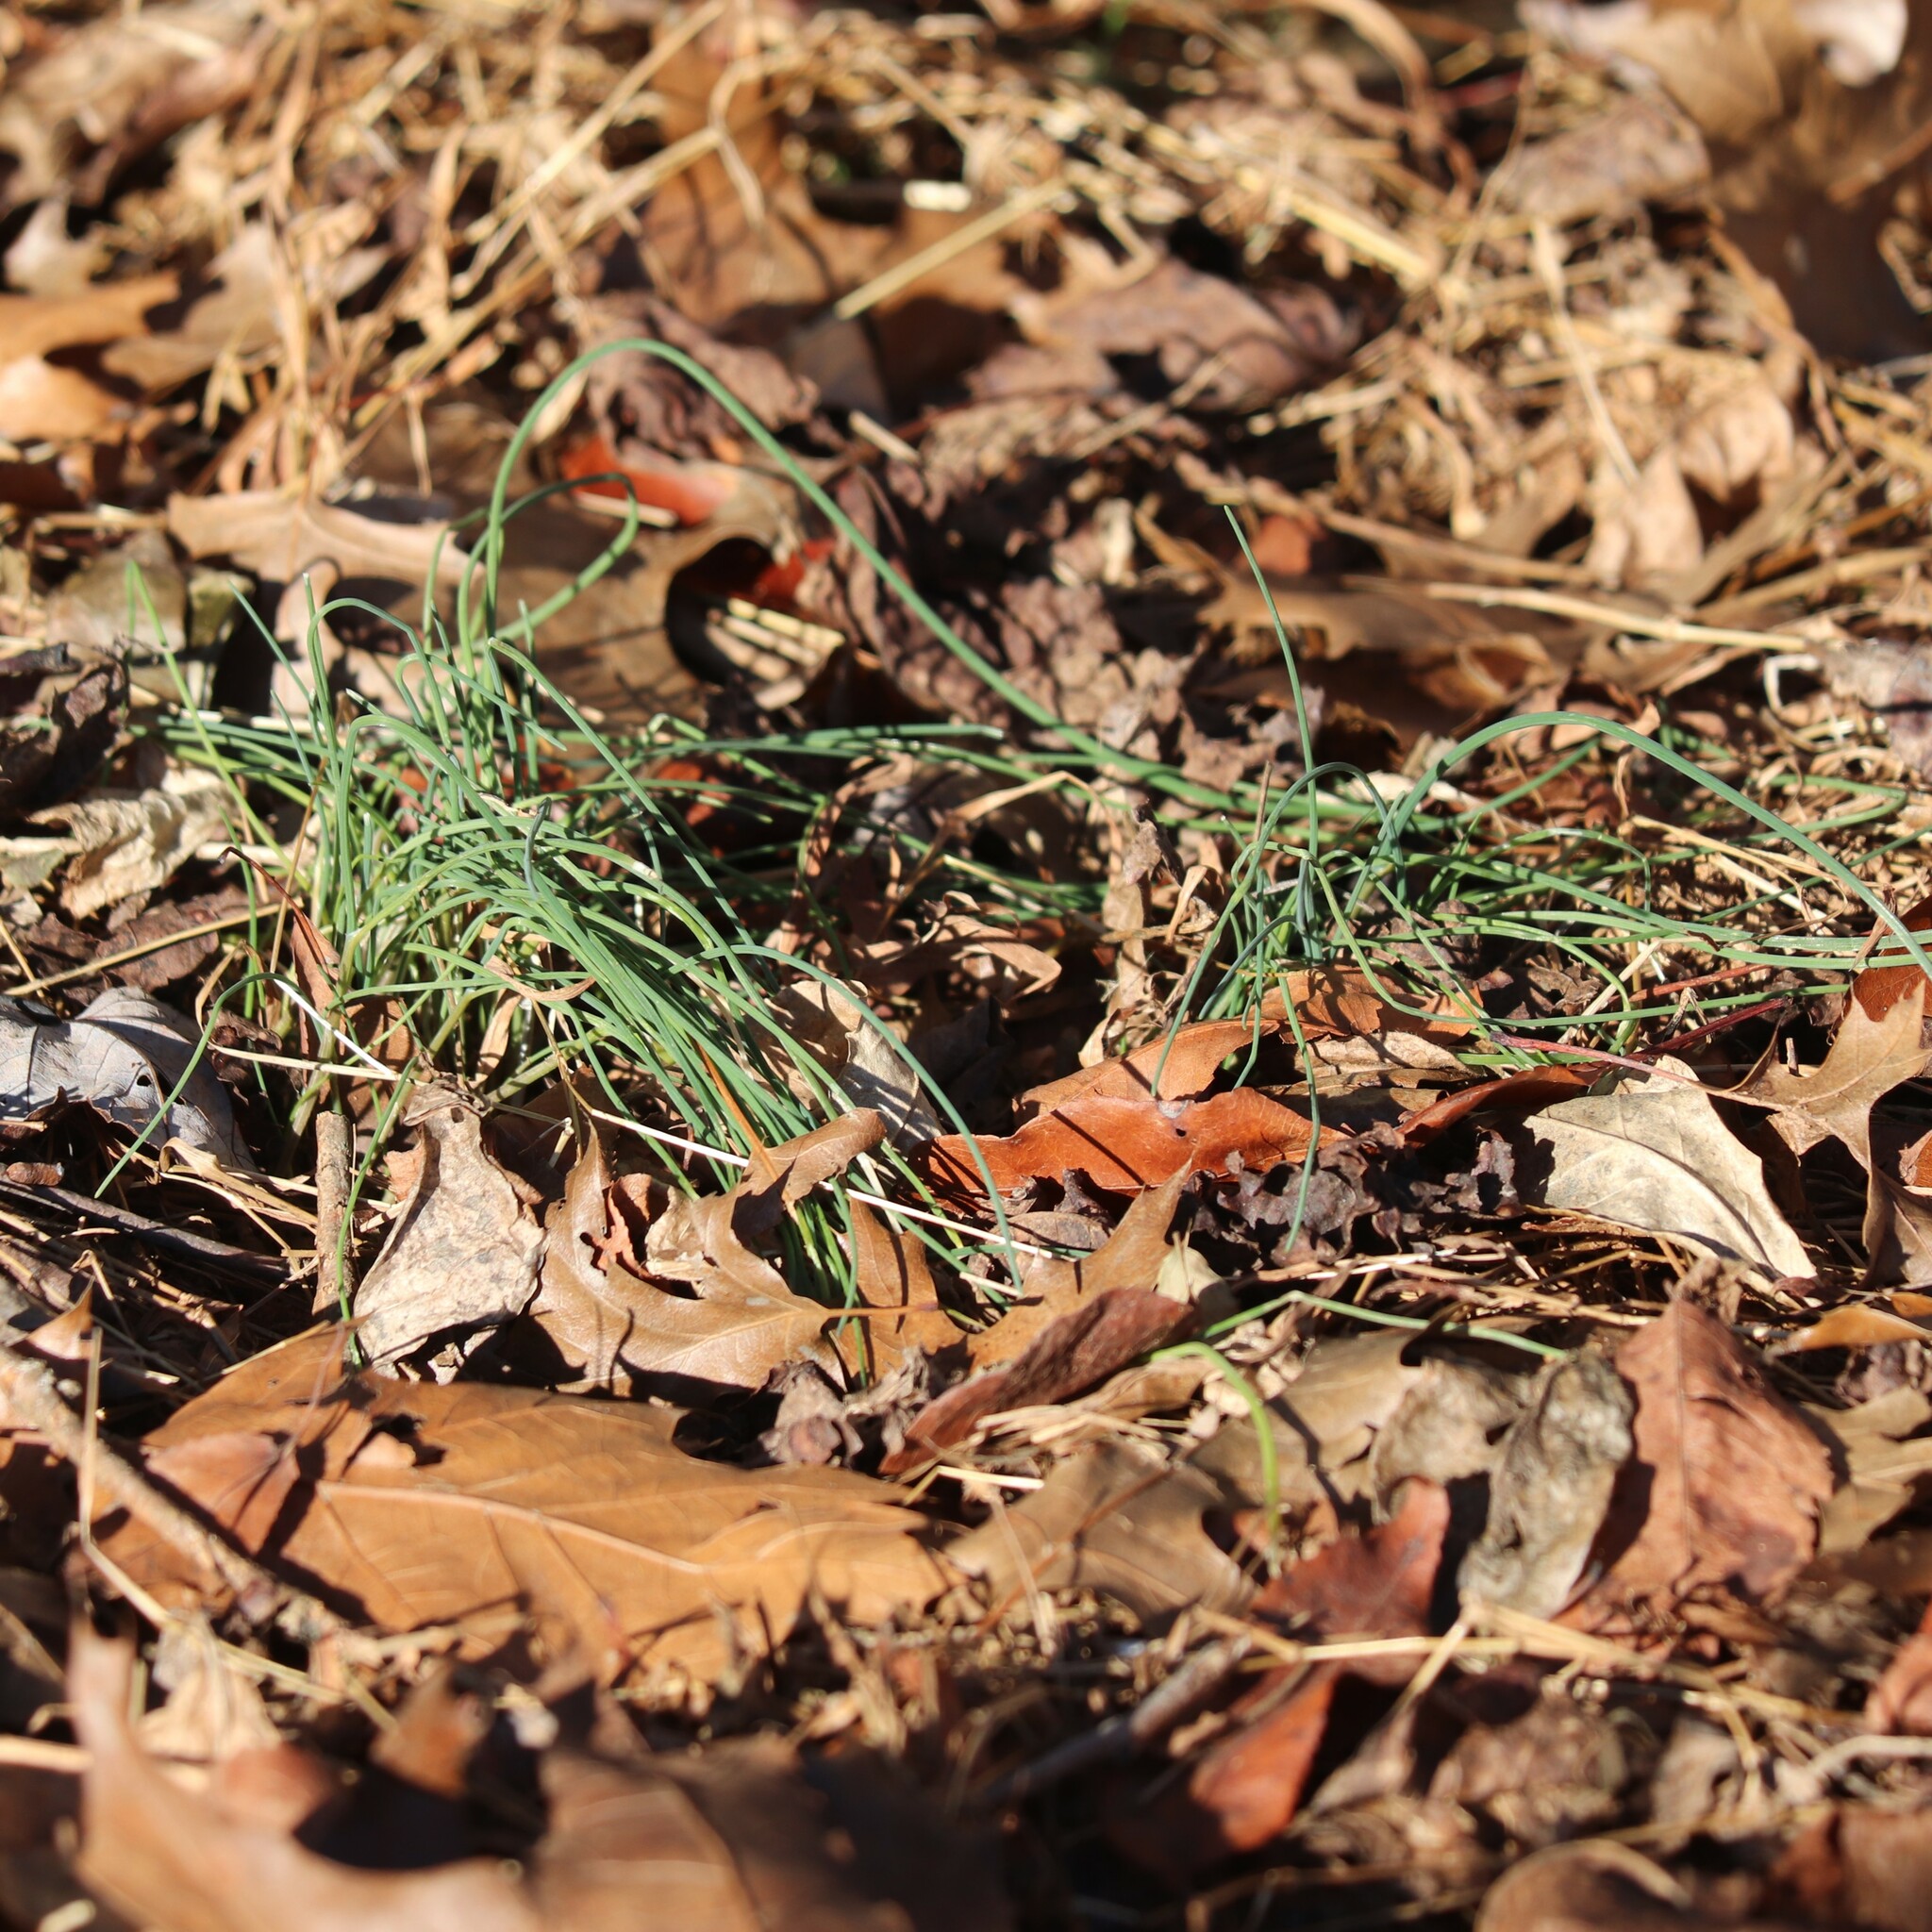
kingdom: Plantae
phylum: Tracheophyta
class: Liliopsida
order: Asparagales
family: Amaryllidaceae
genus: Allium
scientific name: Allium vineale
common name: Crow garlic
